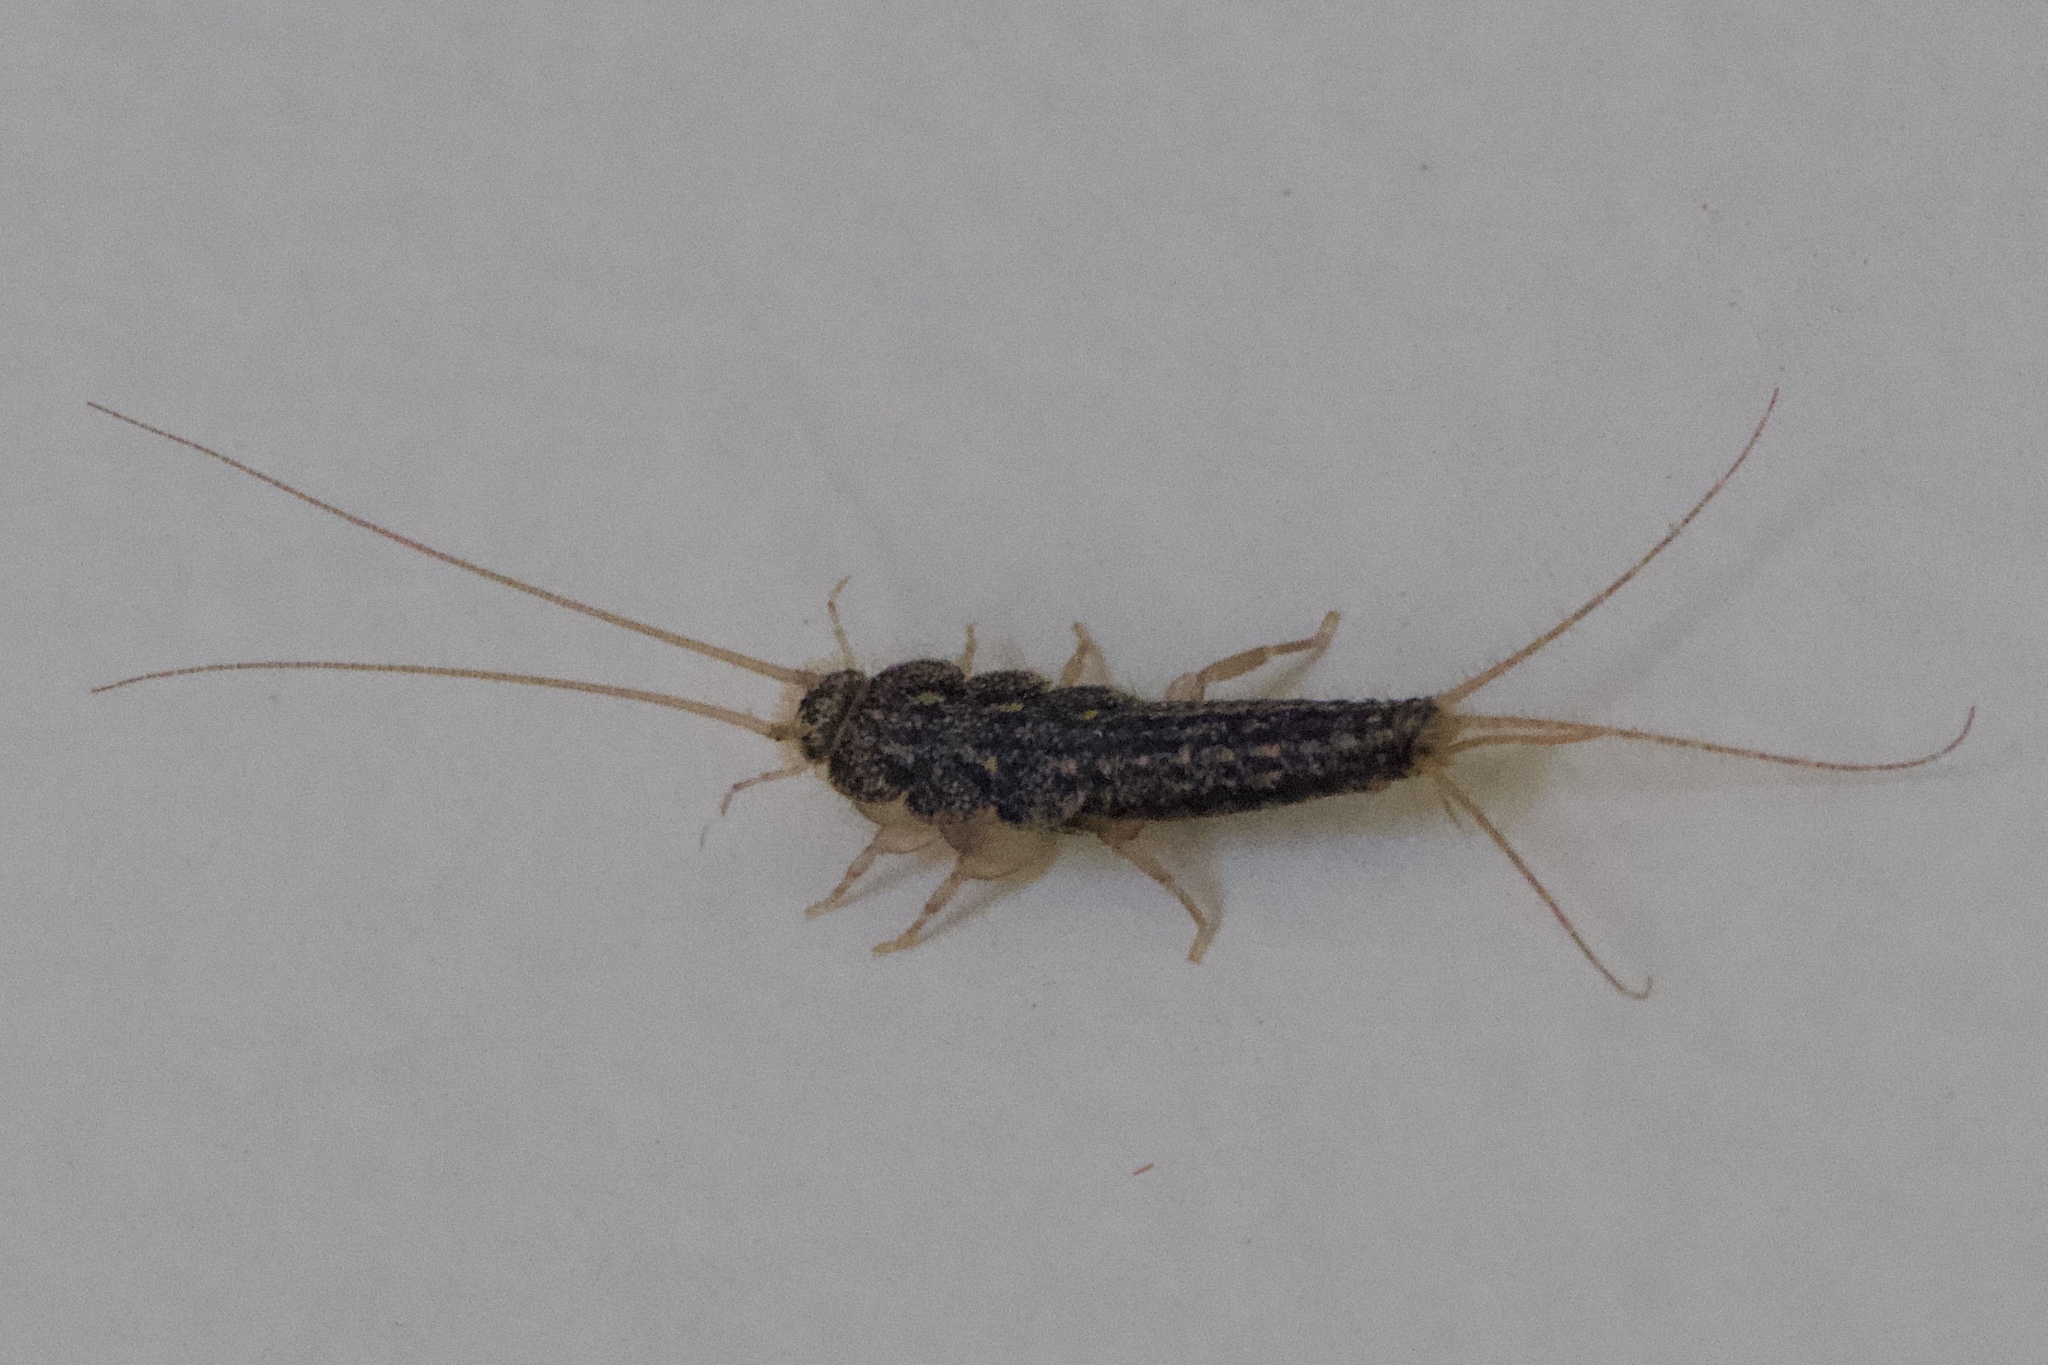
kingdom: Animalia
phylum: Arthropoda
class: Insecta
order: Zygentoma
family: Lepismatidae
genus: Ctenolepisma
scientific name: Ctenolepisma lineata
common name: Four-lined silverfish
